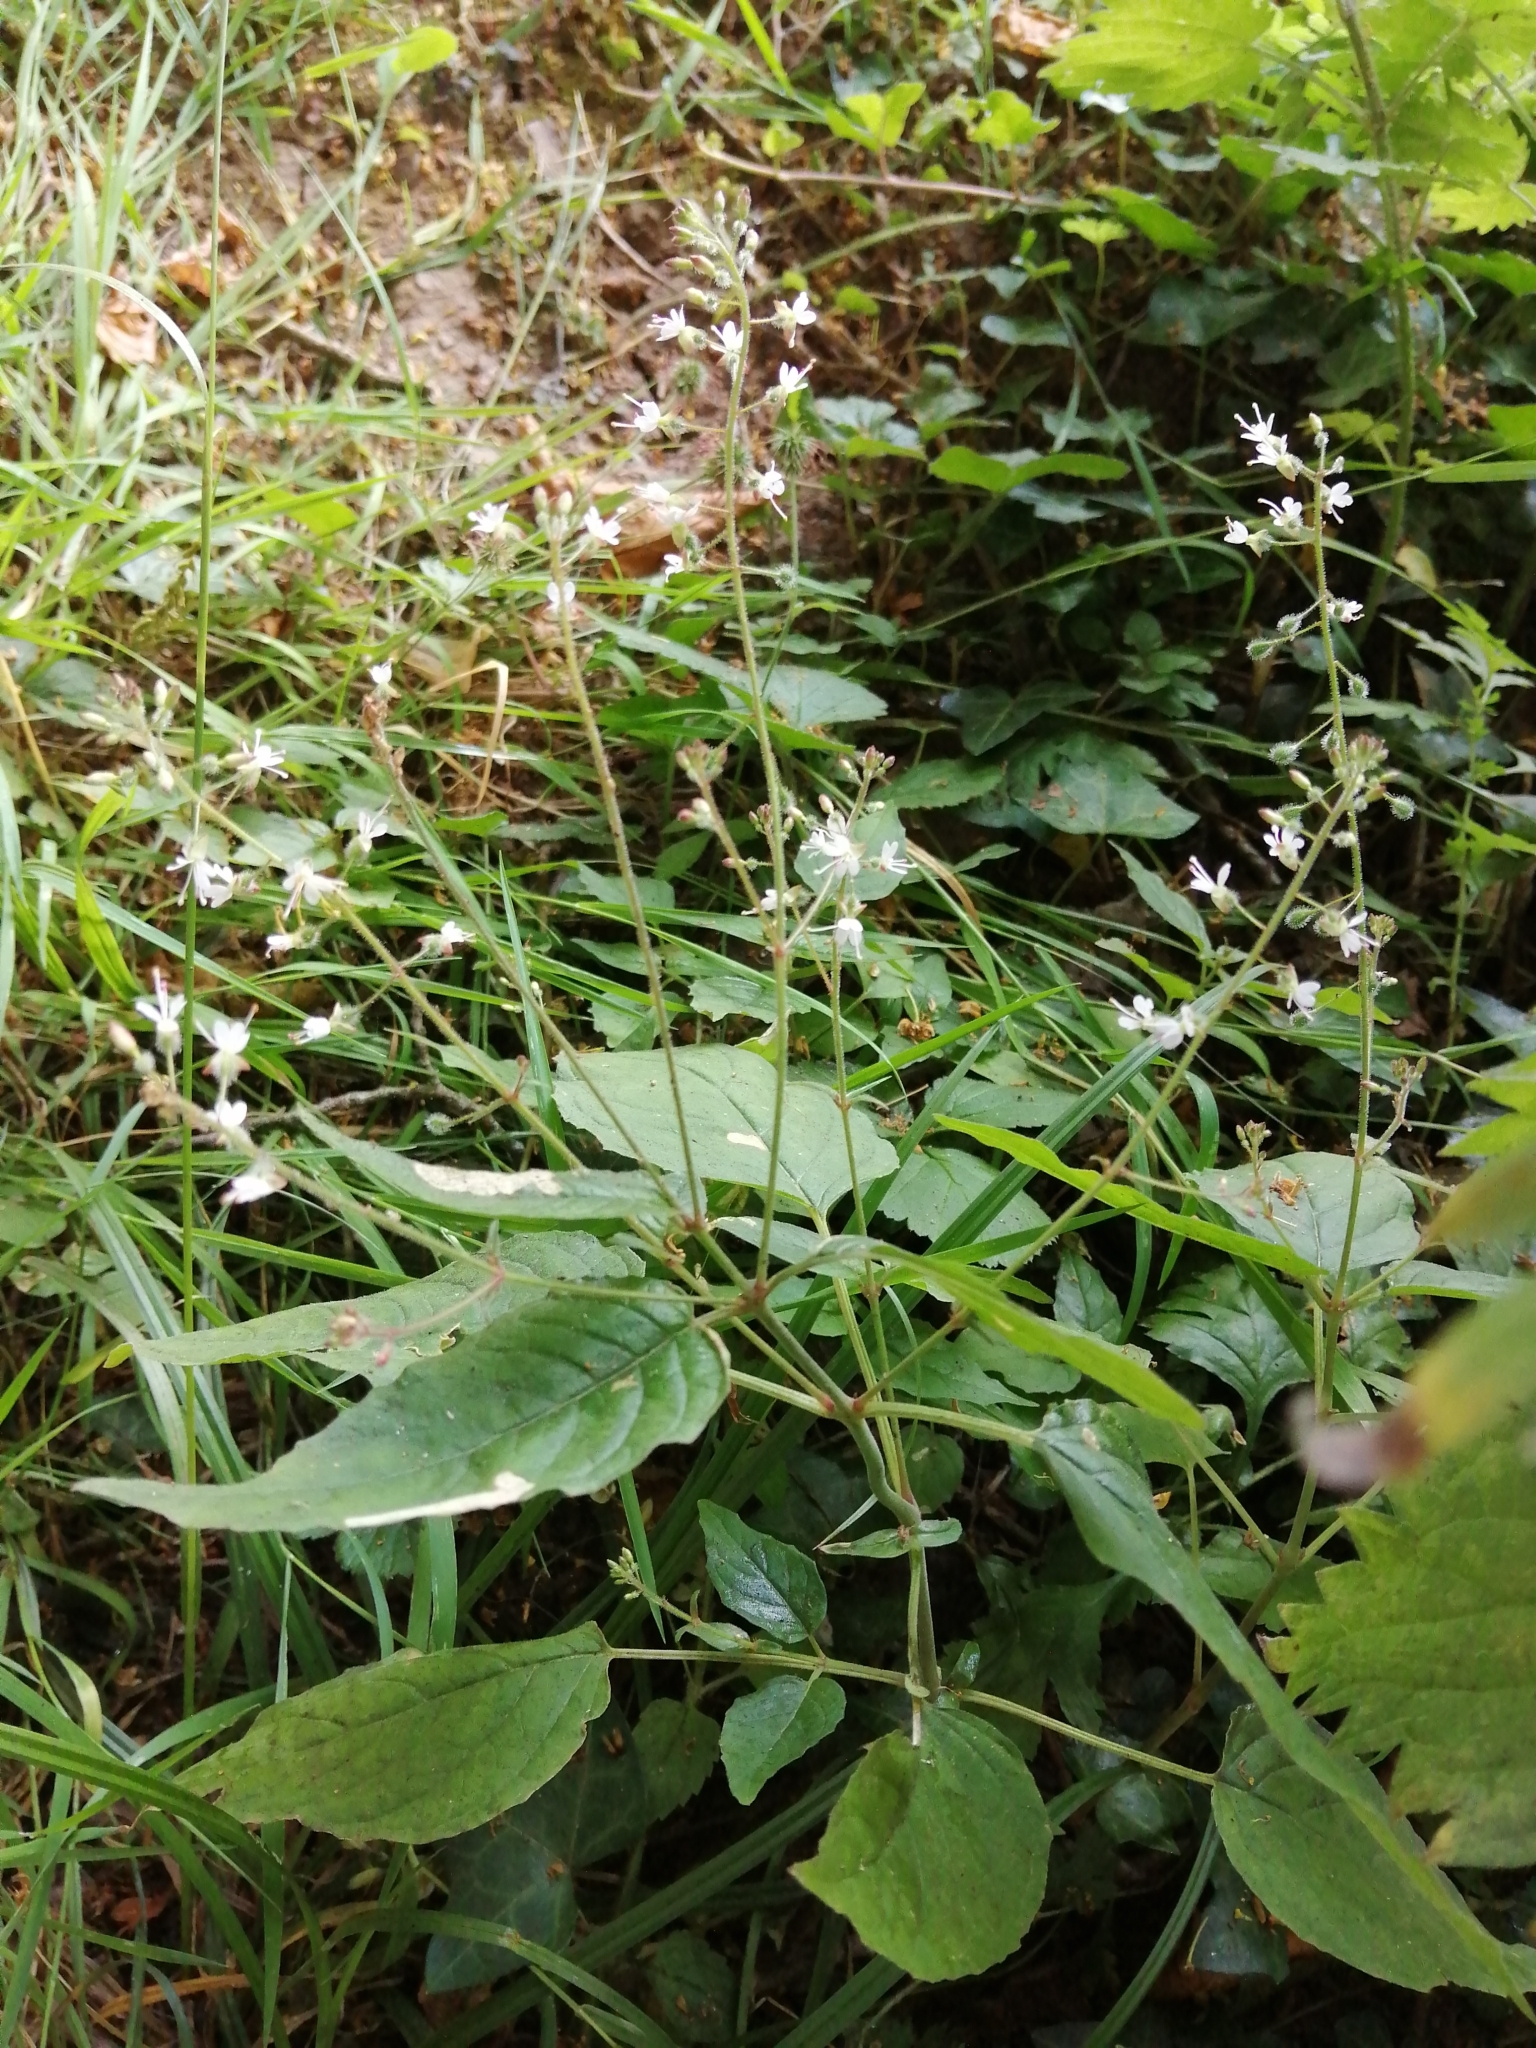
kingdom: Plantae
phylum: Tracheophyta
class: Magnoliopsida
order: Myrtales
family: Onagraceae
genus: Circaea
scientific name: Circaea lutetiana
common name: Enchanter's-nightshade
